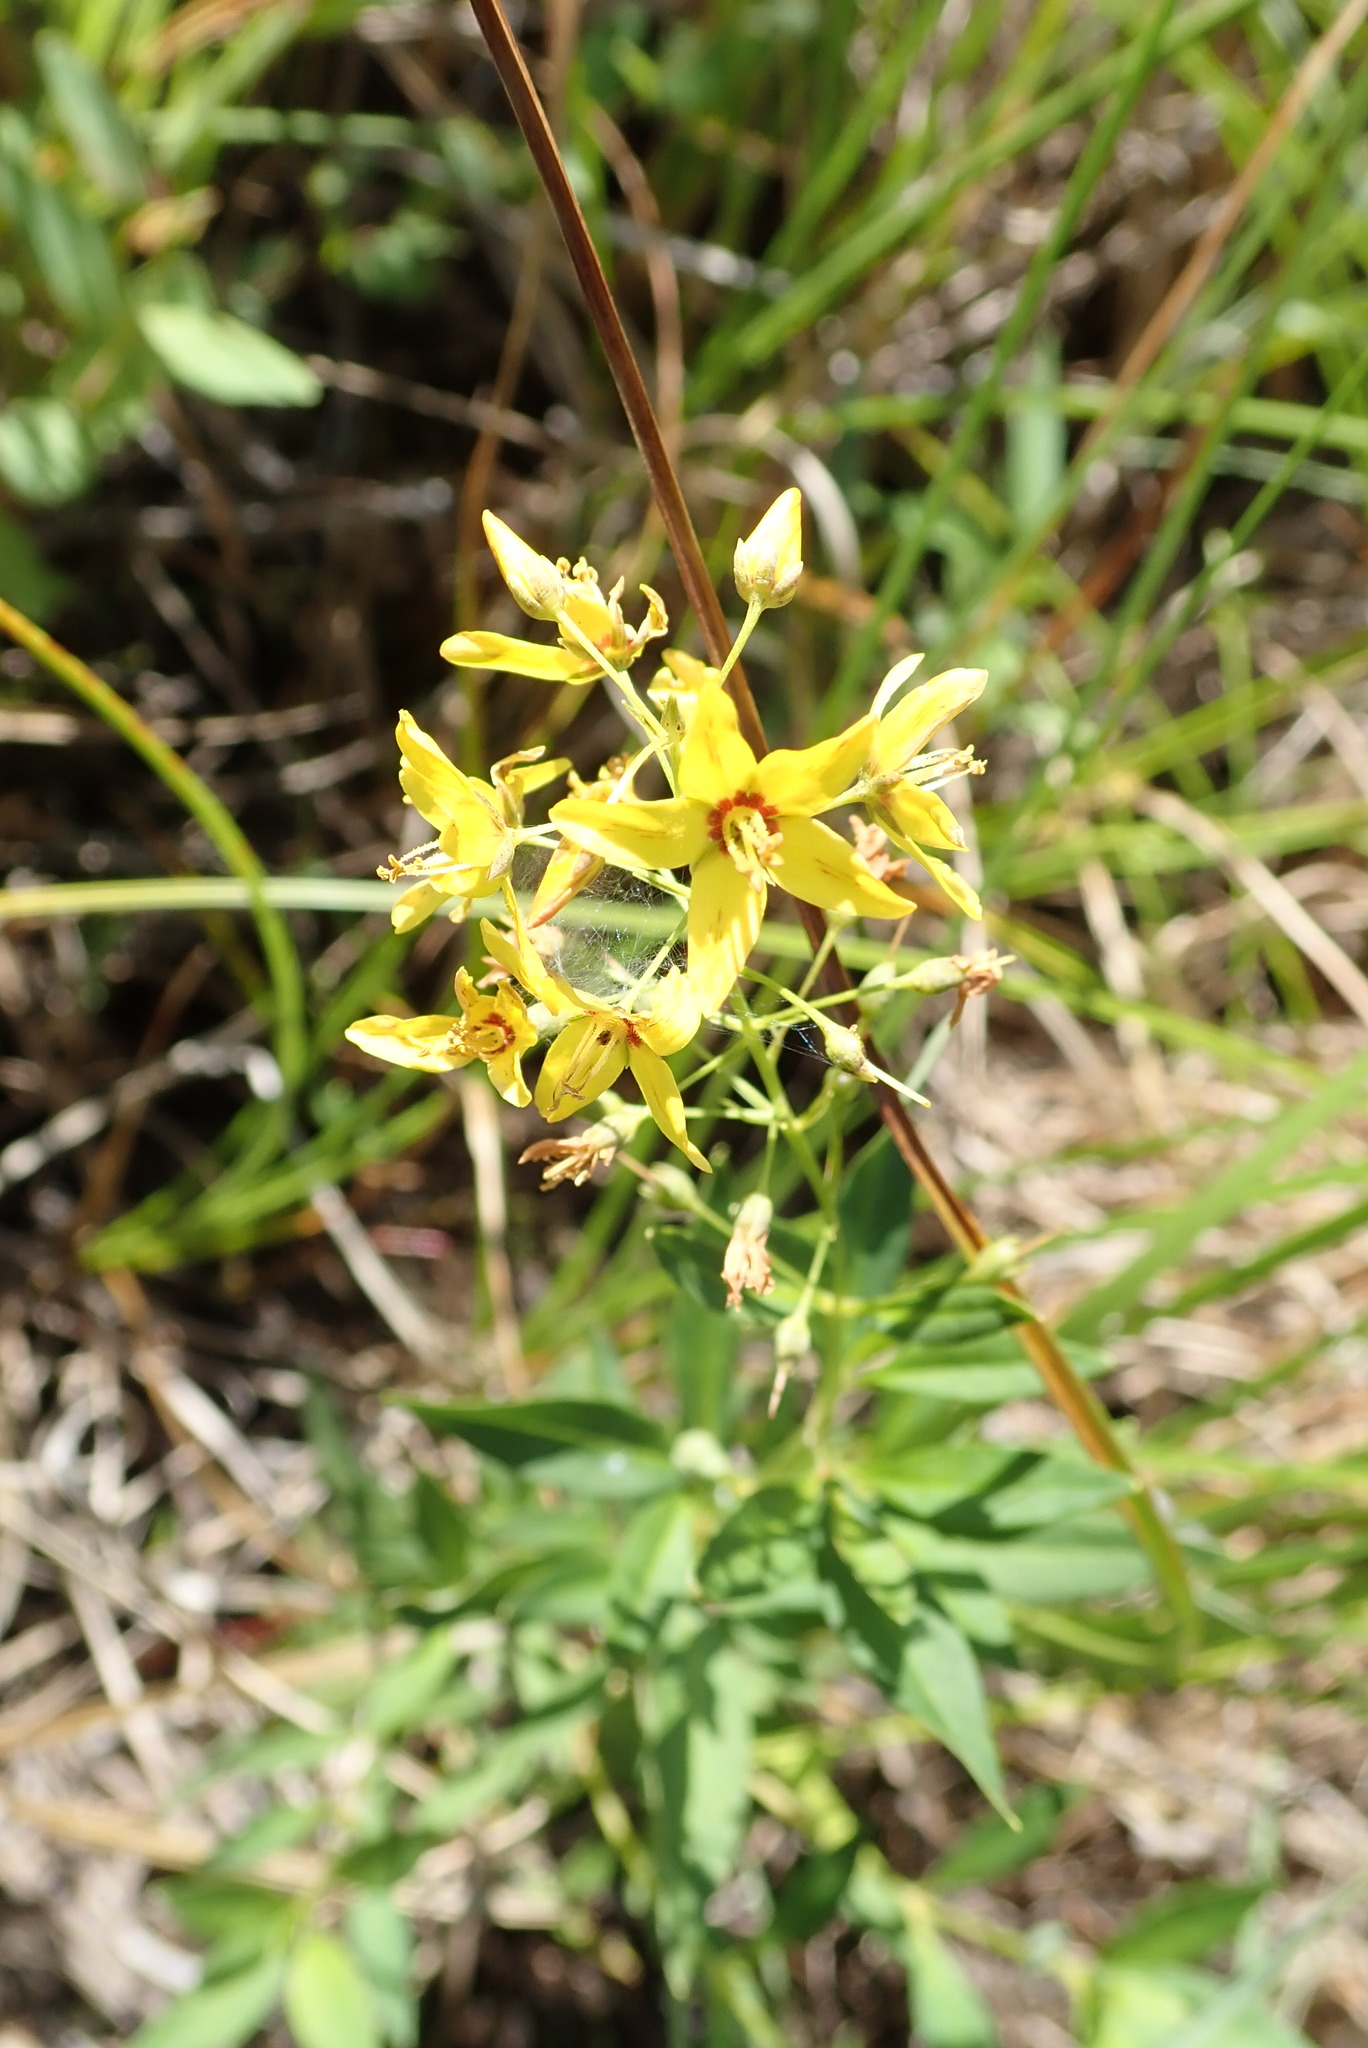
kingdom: Plantae
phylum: Tracheophyta
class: Magnoliopsida
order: Ericales
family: Primulaceae
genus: Lysimachia
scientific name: Lysimachia terrestris
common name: Lake loosestrife
